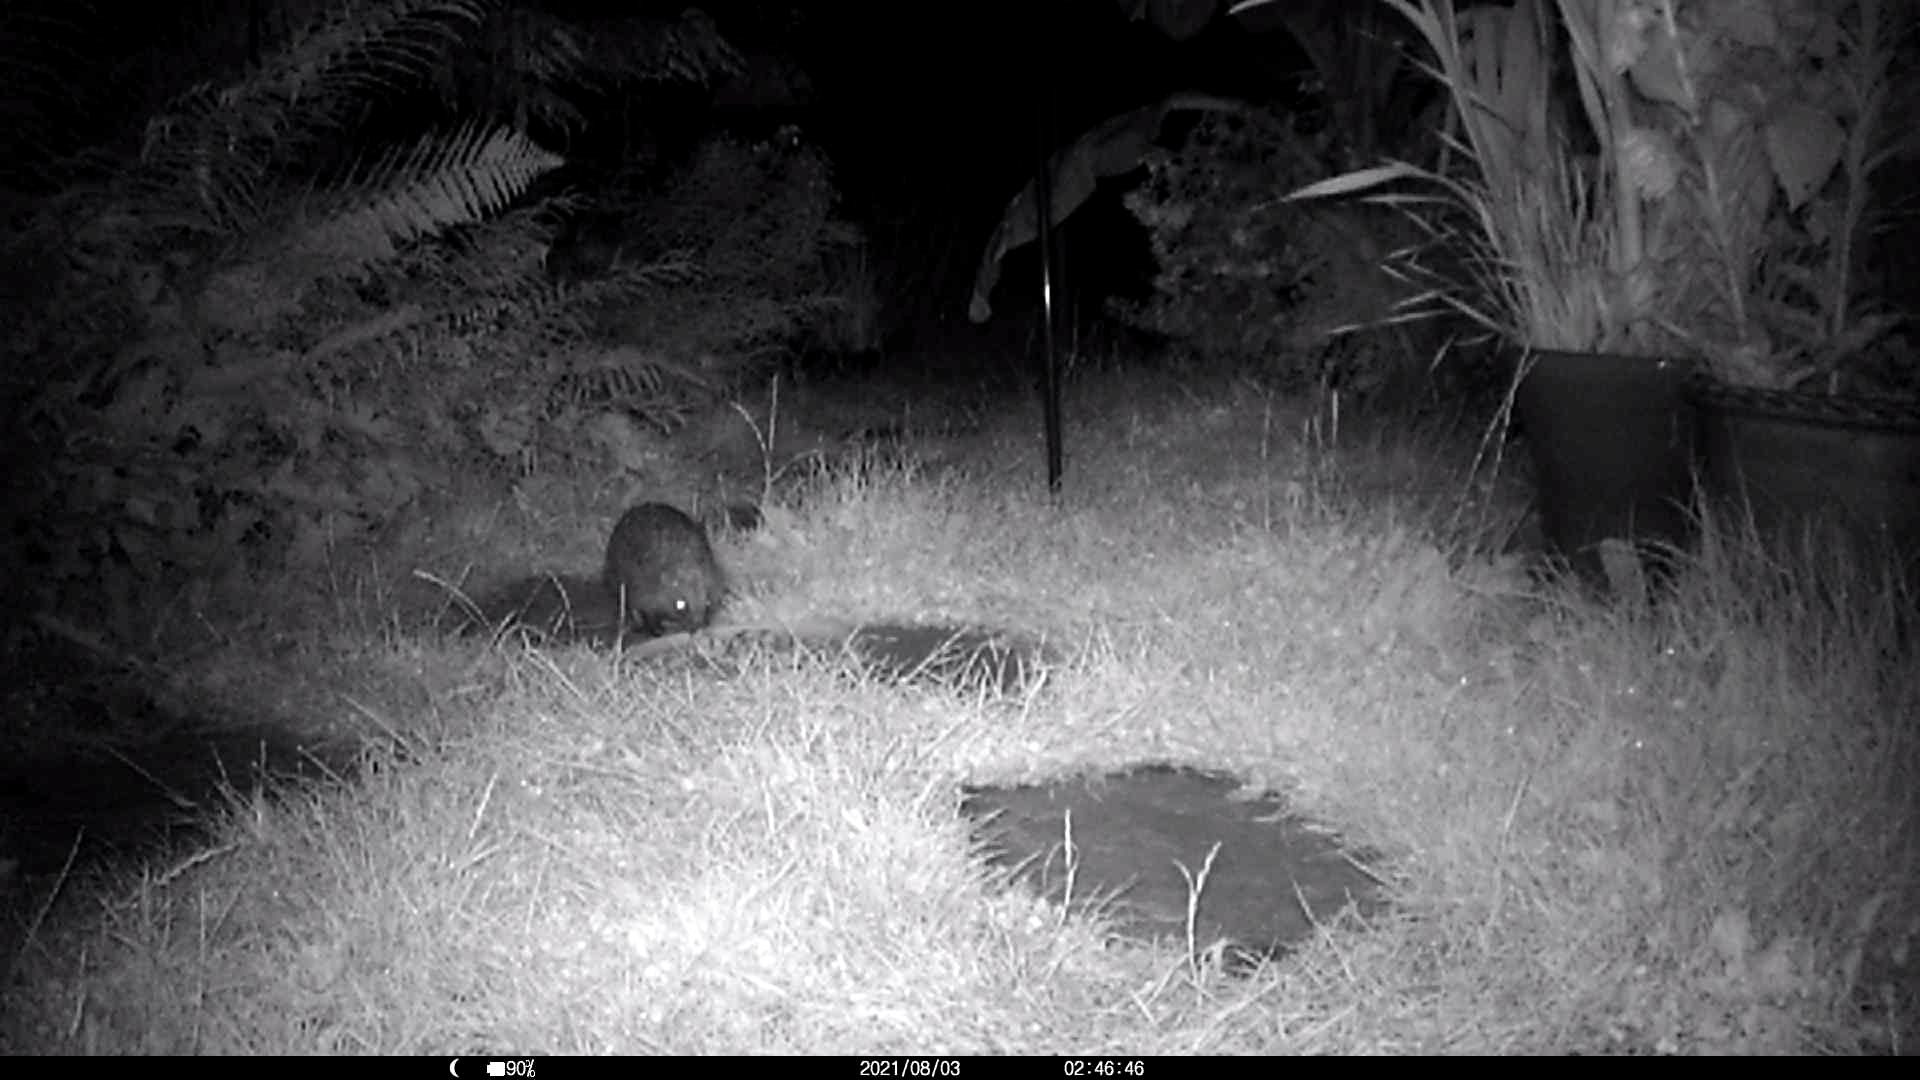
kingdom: Animalia
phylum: Chordata
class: Mammalia
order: Erinaceomorpha
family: Erinaceidae
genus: Erinaceus
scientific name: Erinaceus europaeus
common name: West european hedgehog
